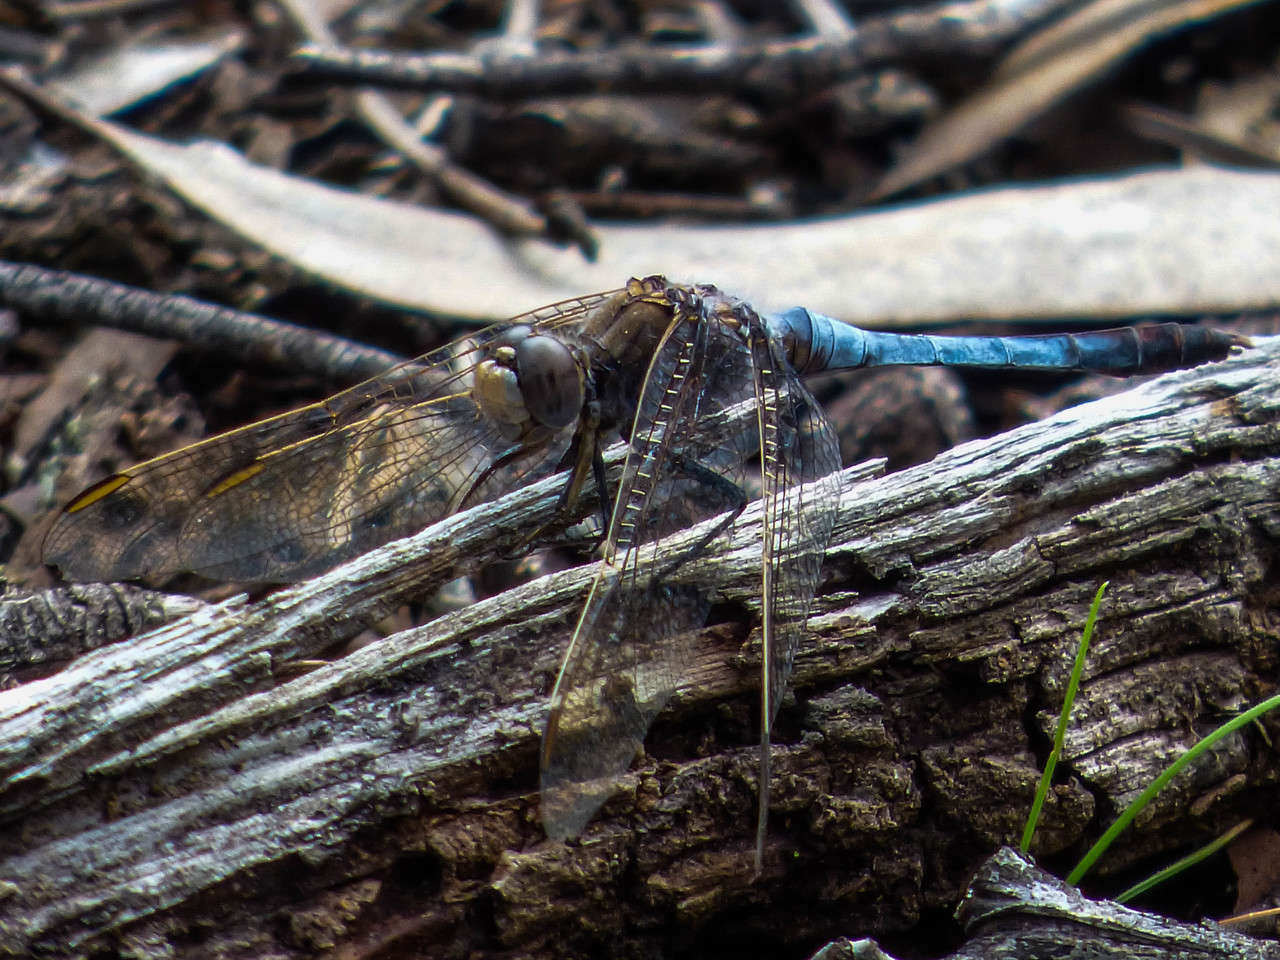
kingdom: Animalia
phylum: Arthropoda
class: Insecta
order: Odonata
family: Libellulidae
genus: Orthetrum
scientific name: Orthetrum caledonicum
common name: Blue skimmer
